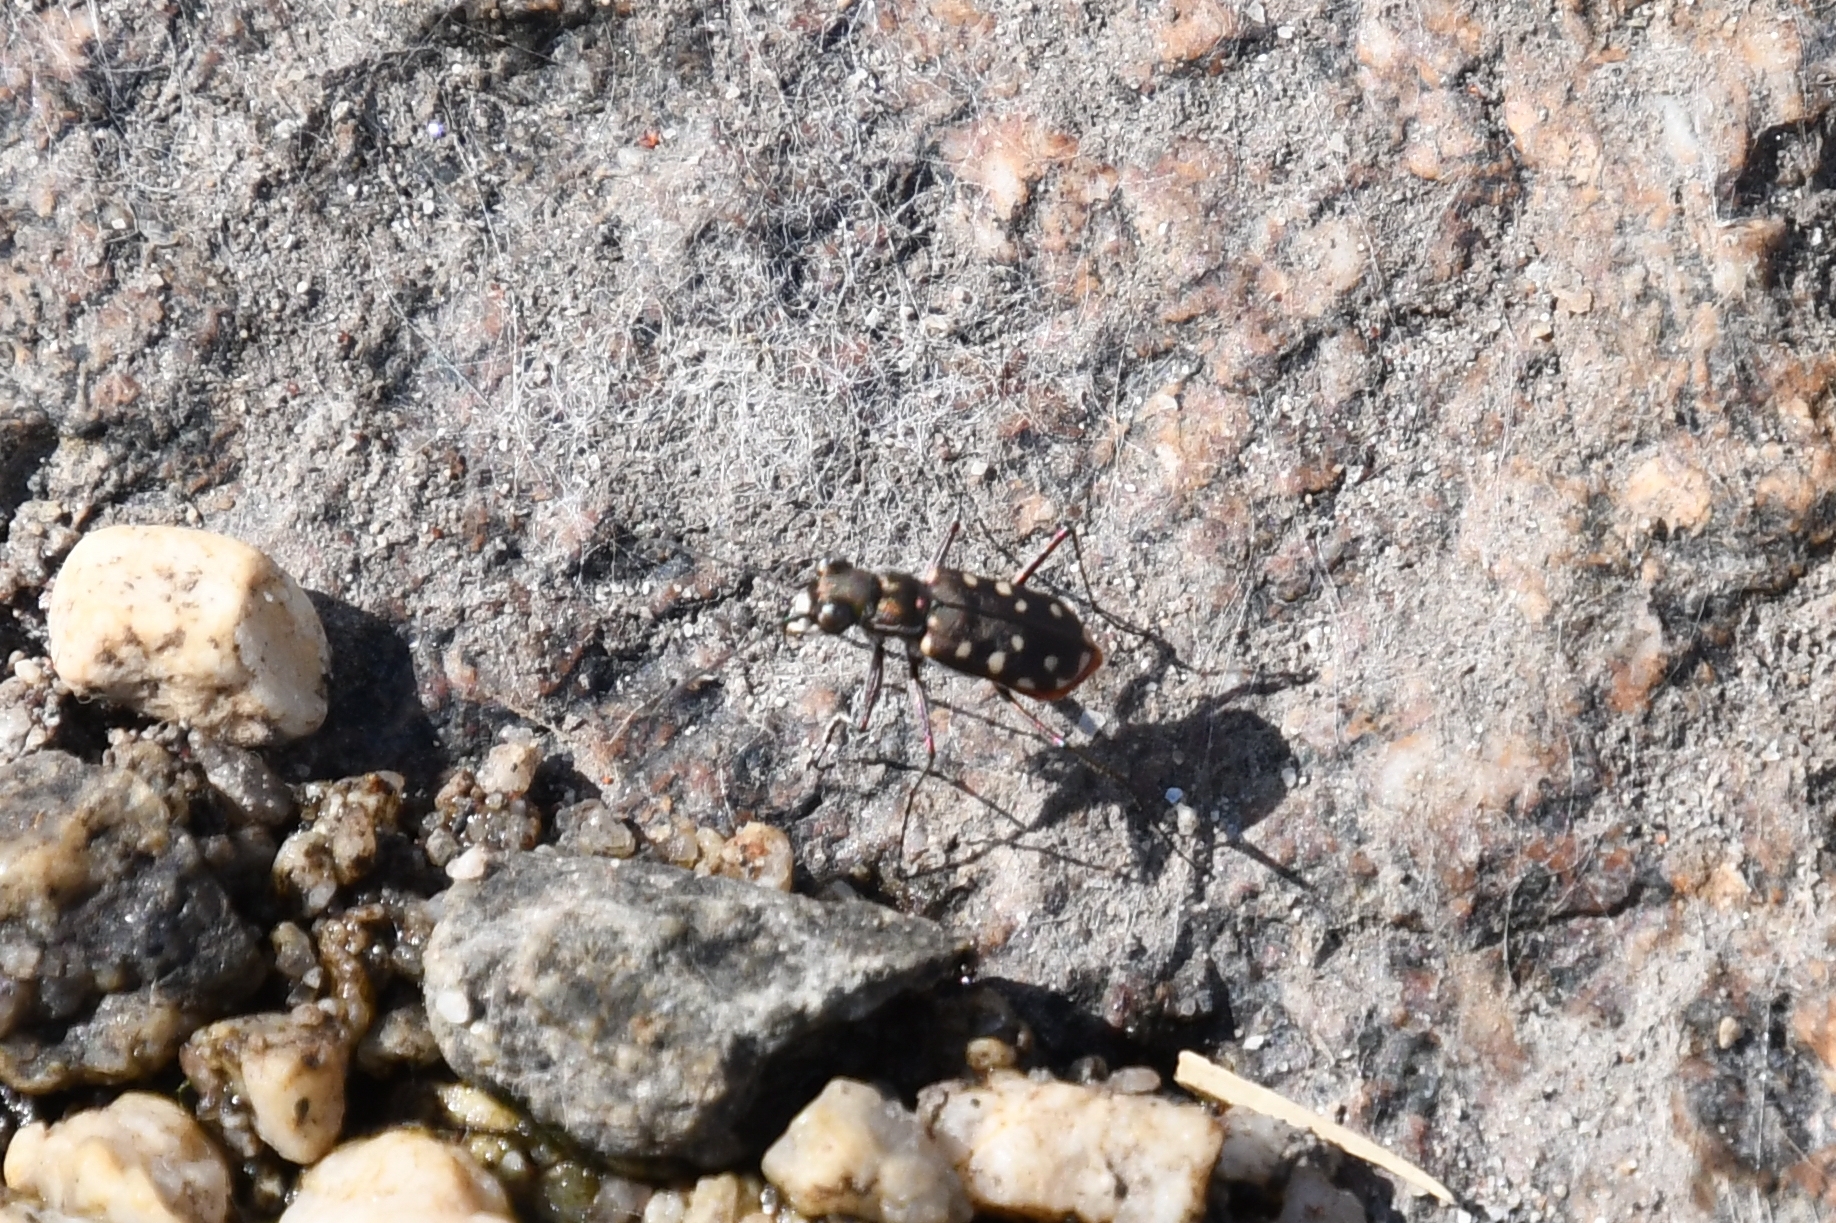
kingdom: Animalia
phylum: Arthropoda
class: Insecta
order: Coleoptera
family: Carabidae
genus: Cicindela
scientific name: Cicindela sedecimpunctata
